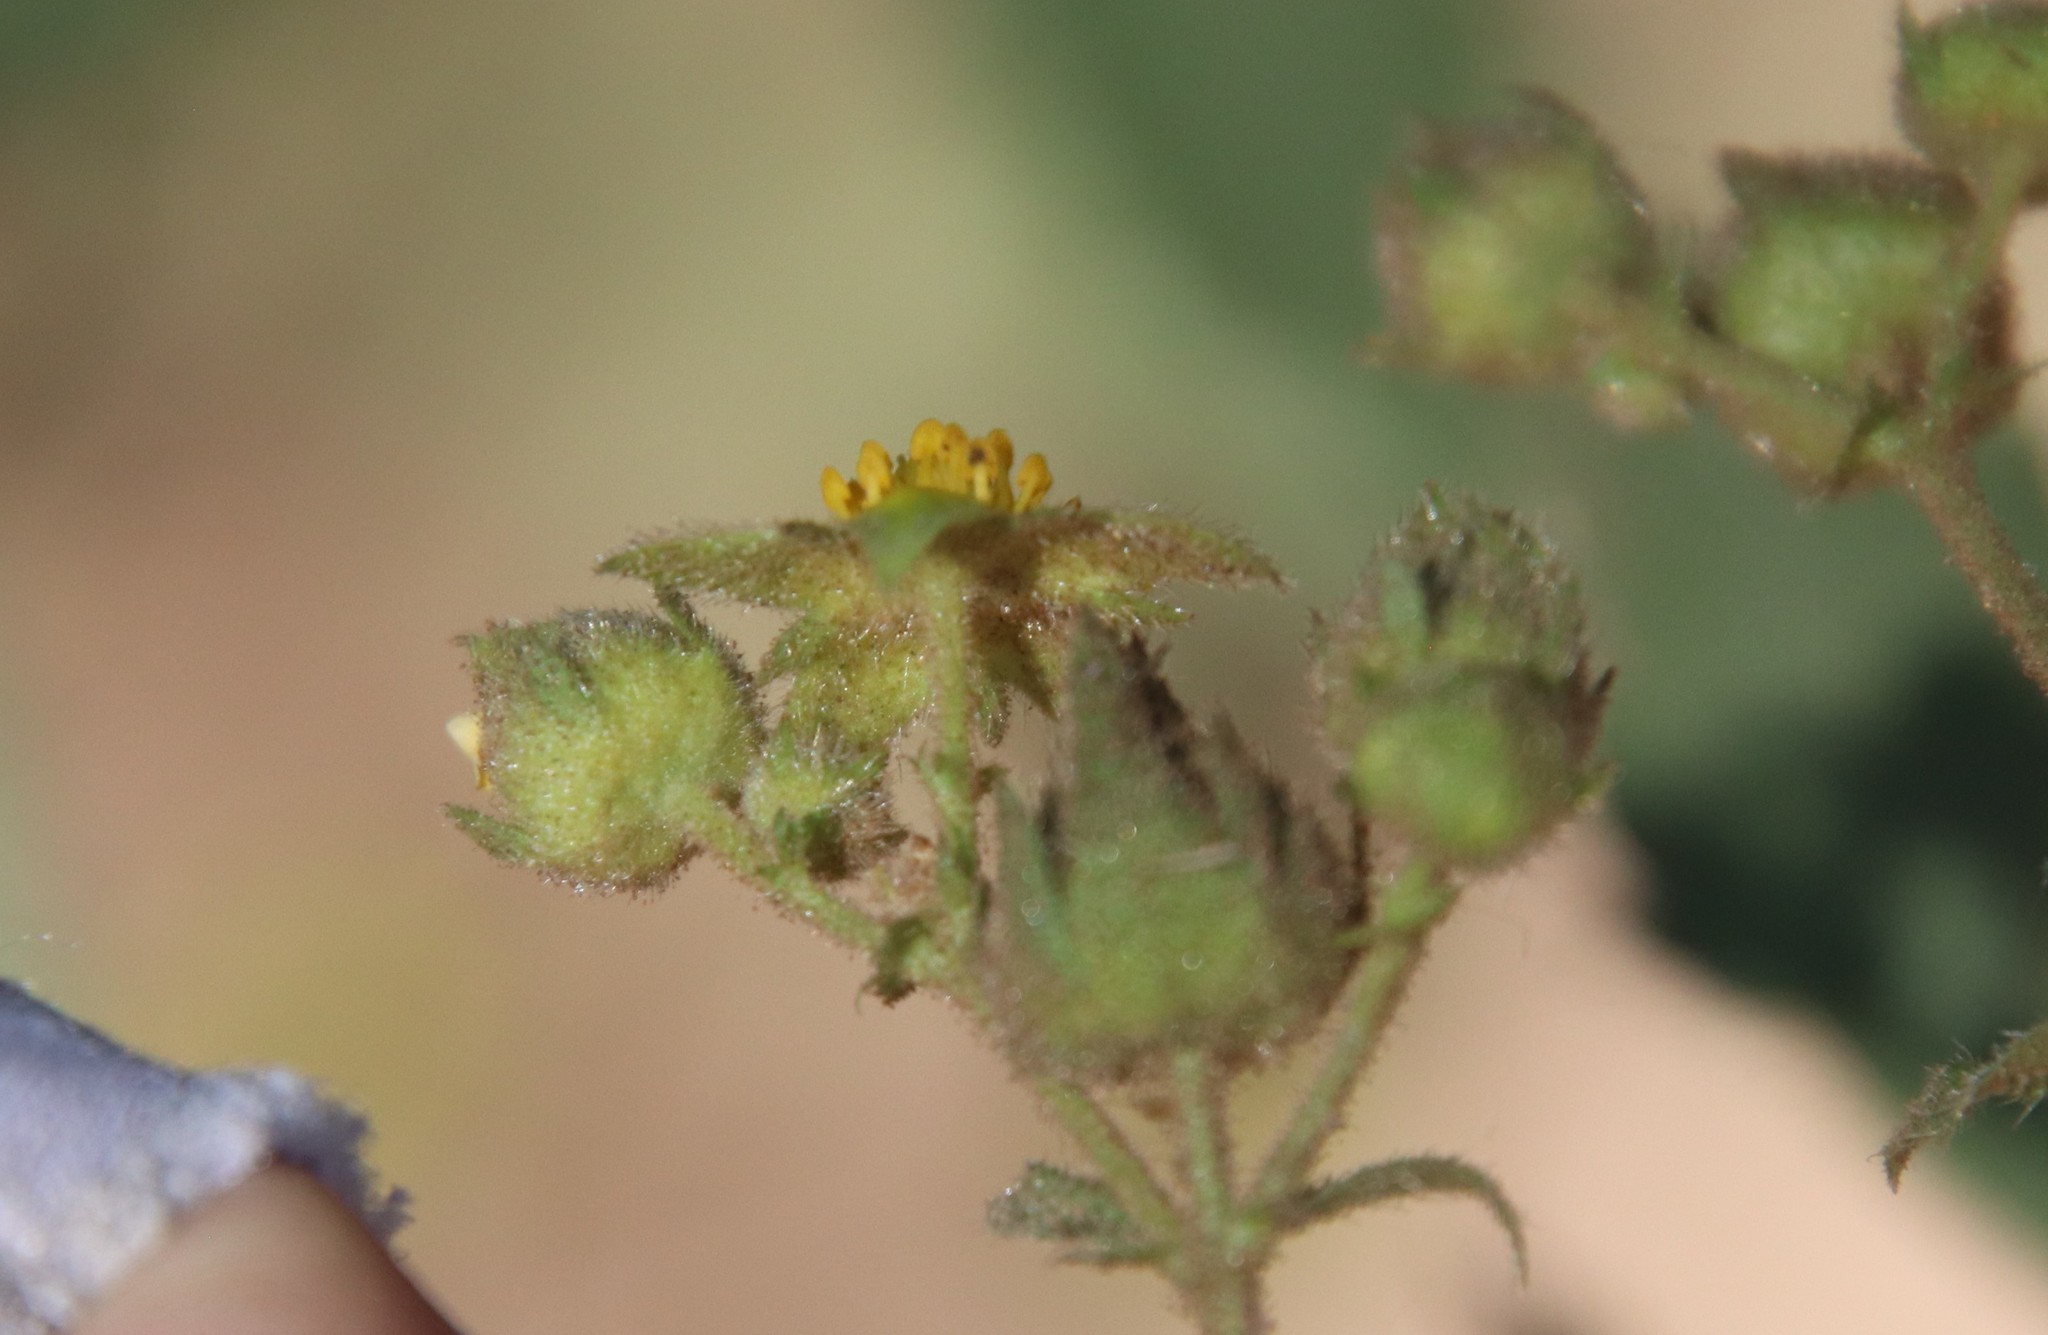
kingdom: Plantae
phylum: Tracheophyta
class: Magnoliopsida
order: Rosales
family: Rosaceae
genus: Drymocallis
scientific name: Drymocallis glandulosa
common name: Sticky cinquefoil
